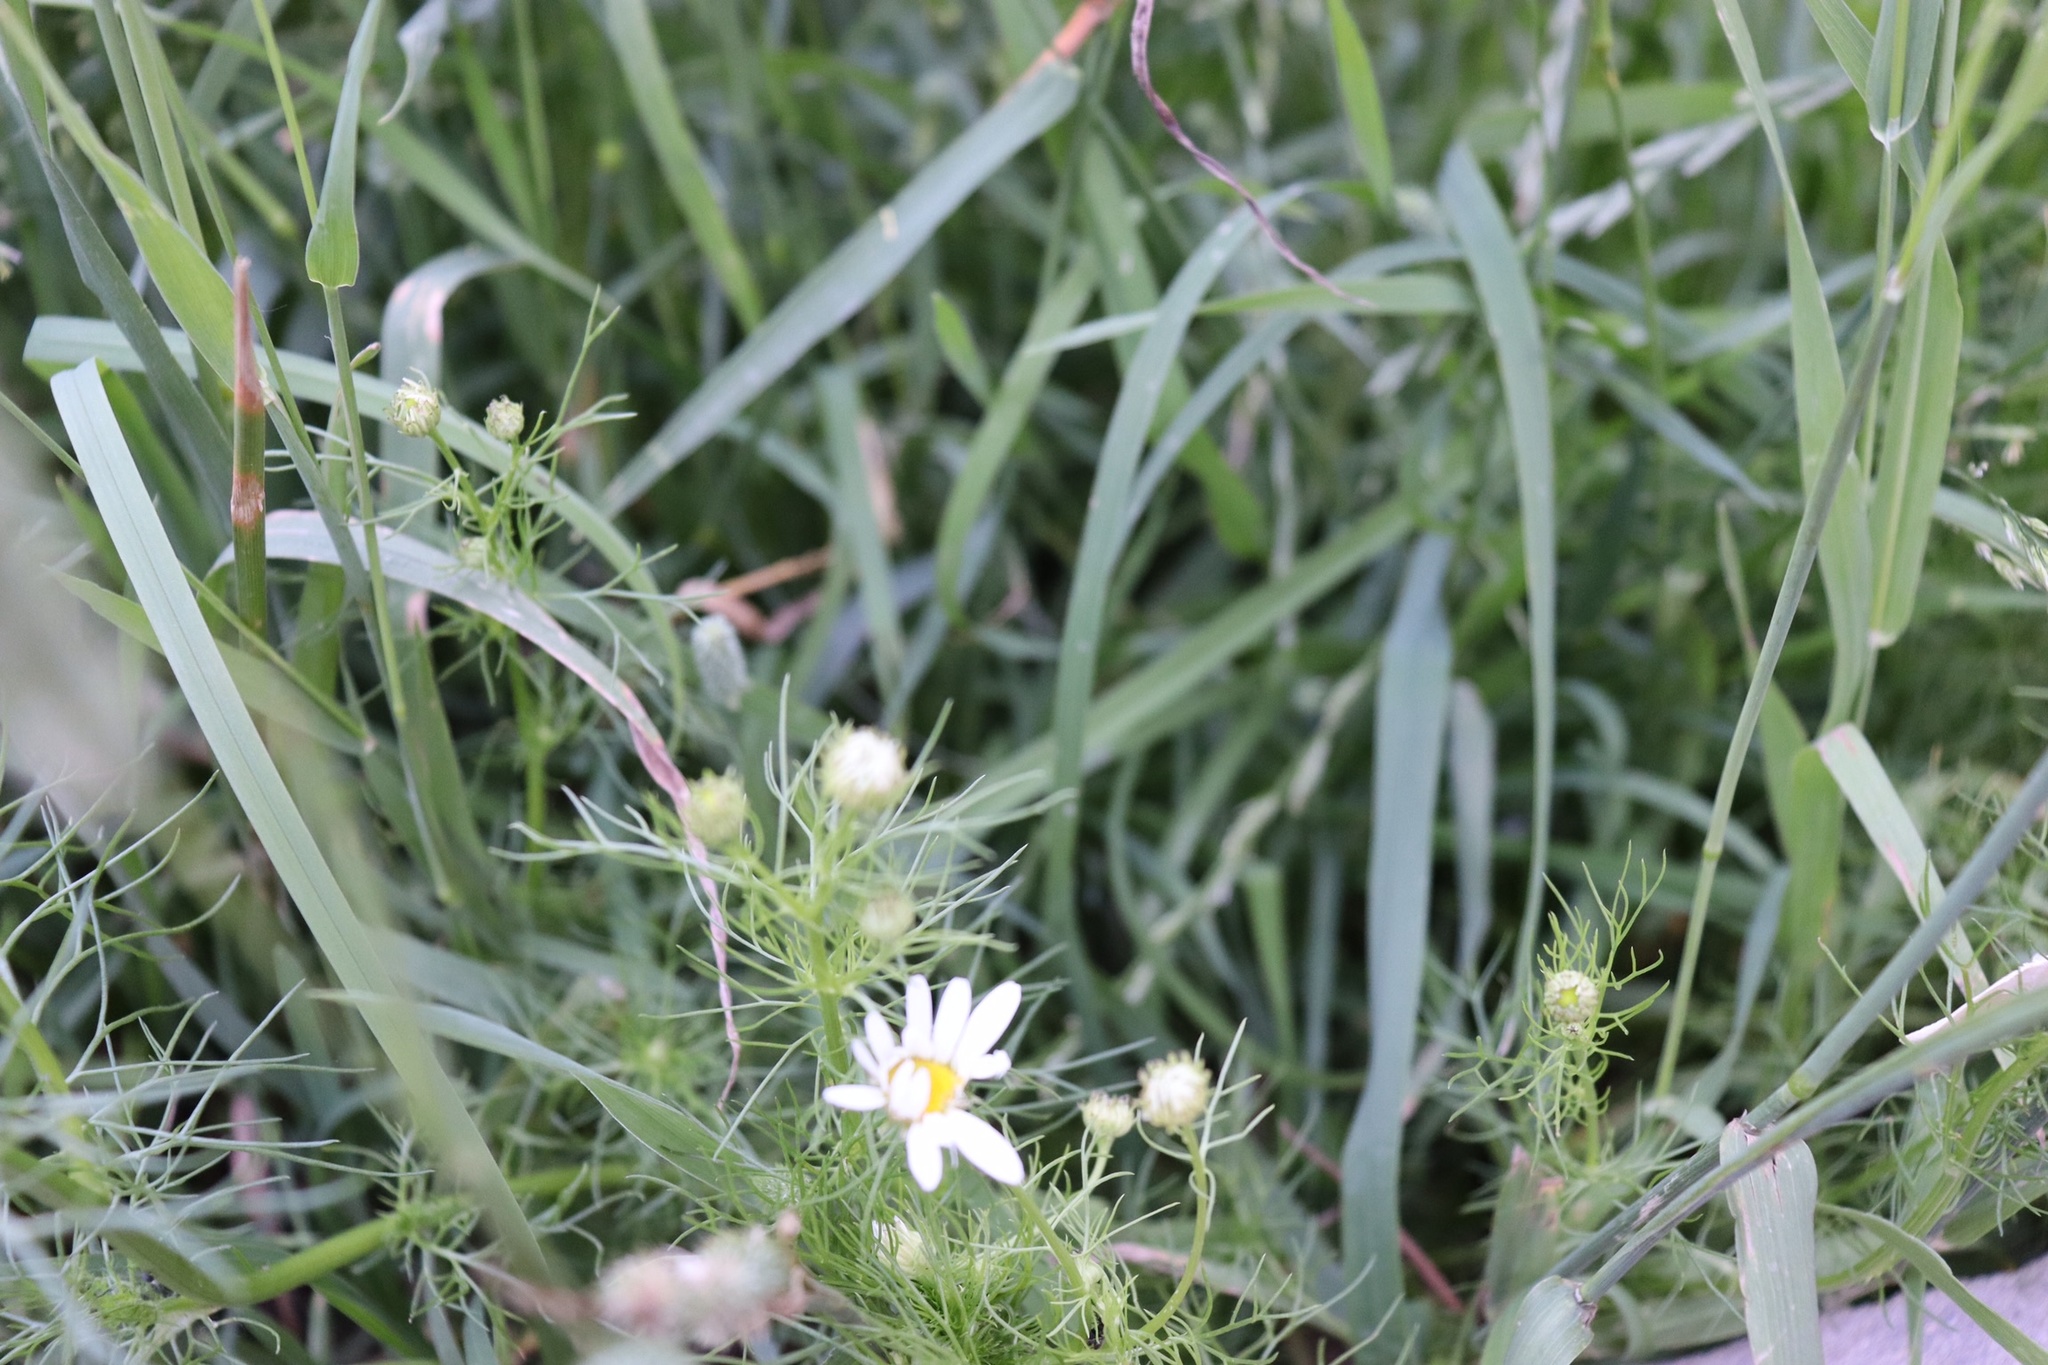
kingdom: Plantae
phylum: Tracheophyta
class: Magnoliopsida
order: Asterales
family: Asteraceae
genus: Tripleurospermum
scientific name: Tripleurospermum inodorum
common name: Scentless mayweed
